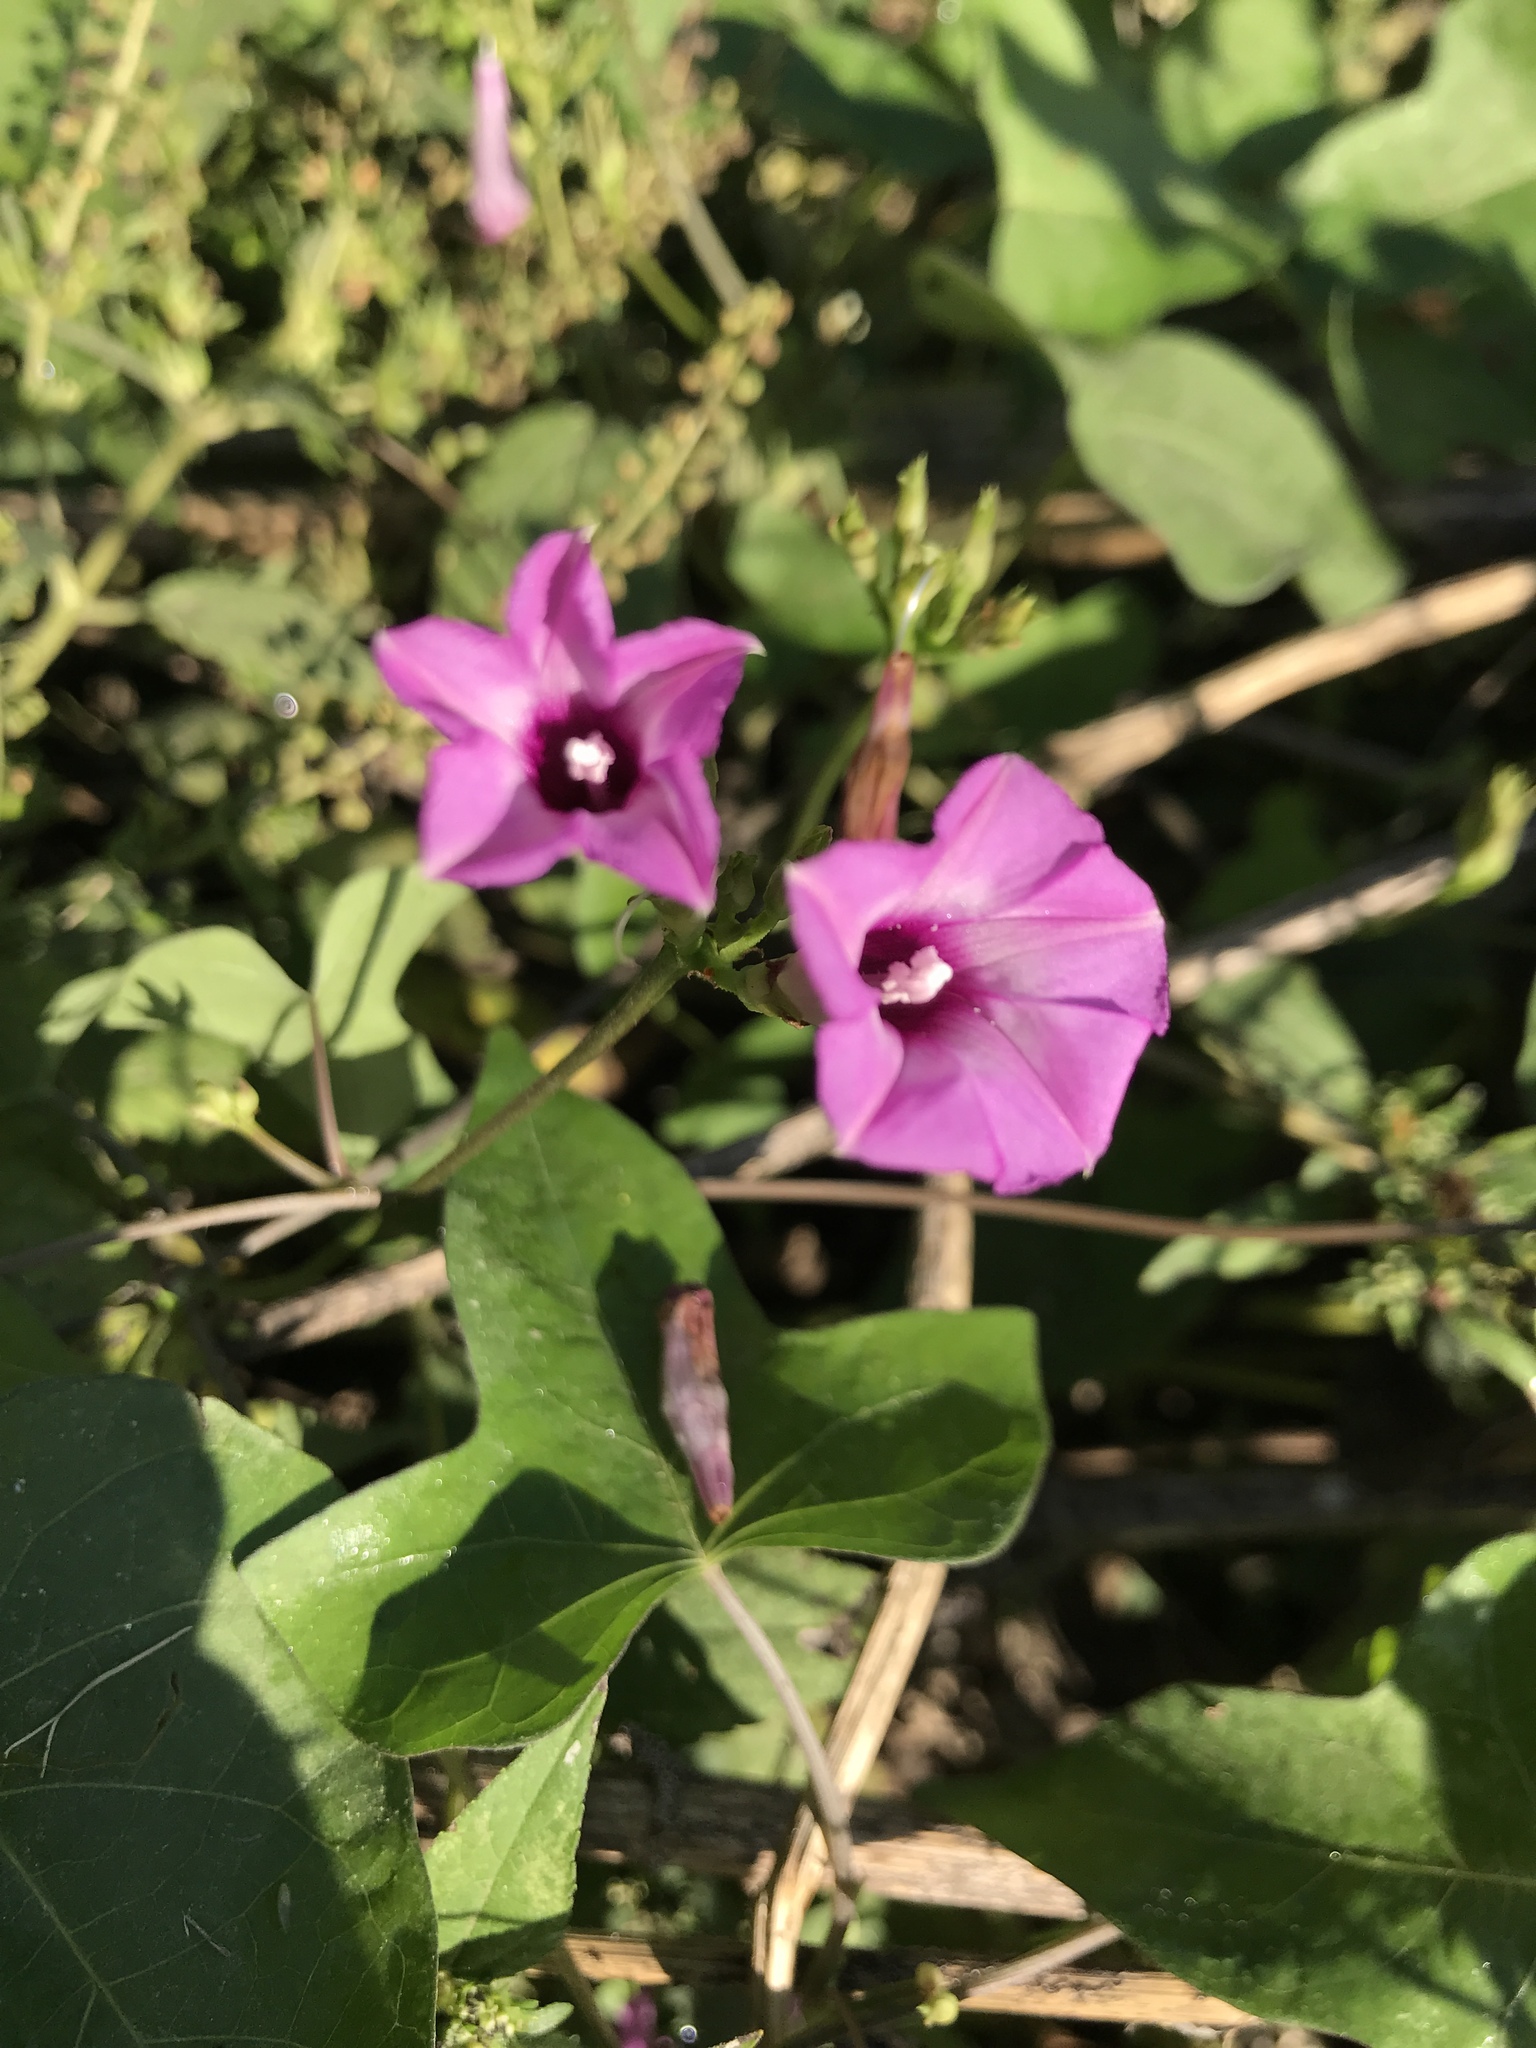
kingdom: Plantae
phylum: Tracheophyta
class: Magnoliopsida
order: Solanales
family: Convolvulaceae
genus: Ipomoea
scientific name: Ipomoea cordatotriloba
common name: Cotton morning glory
